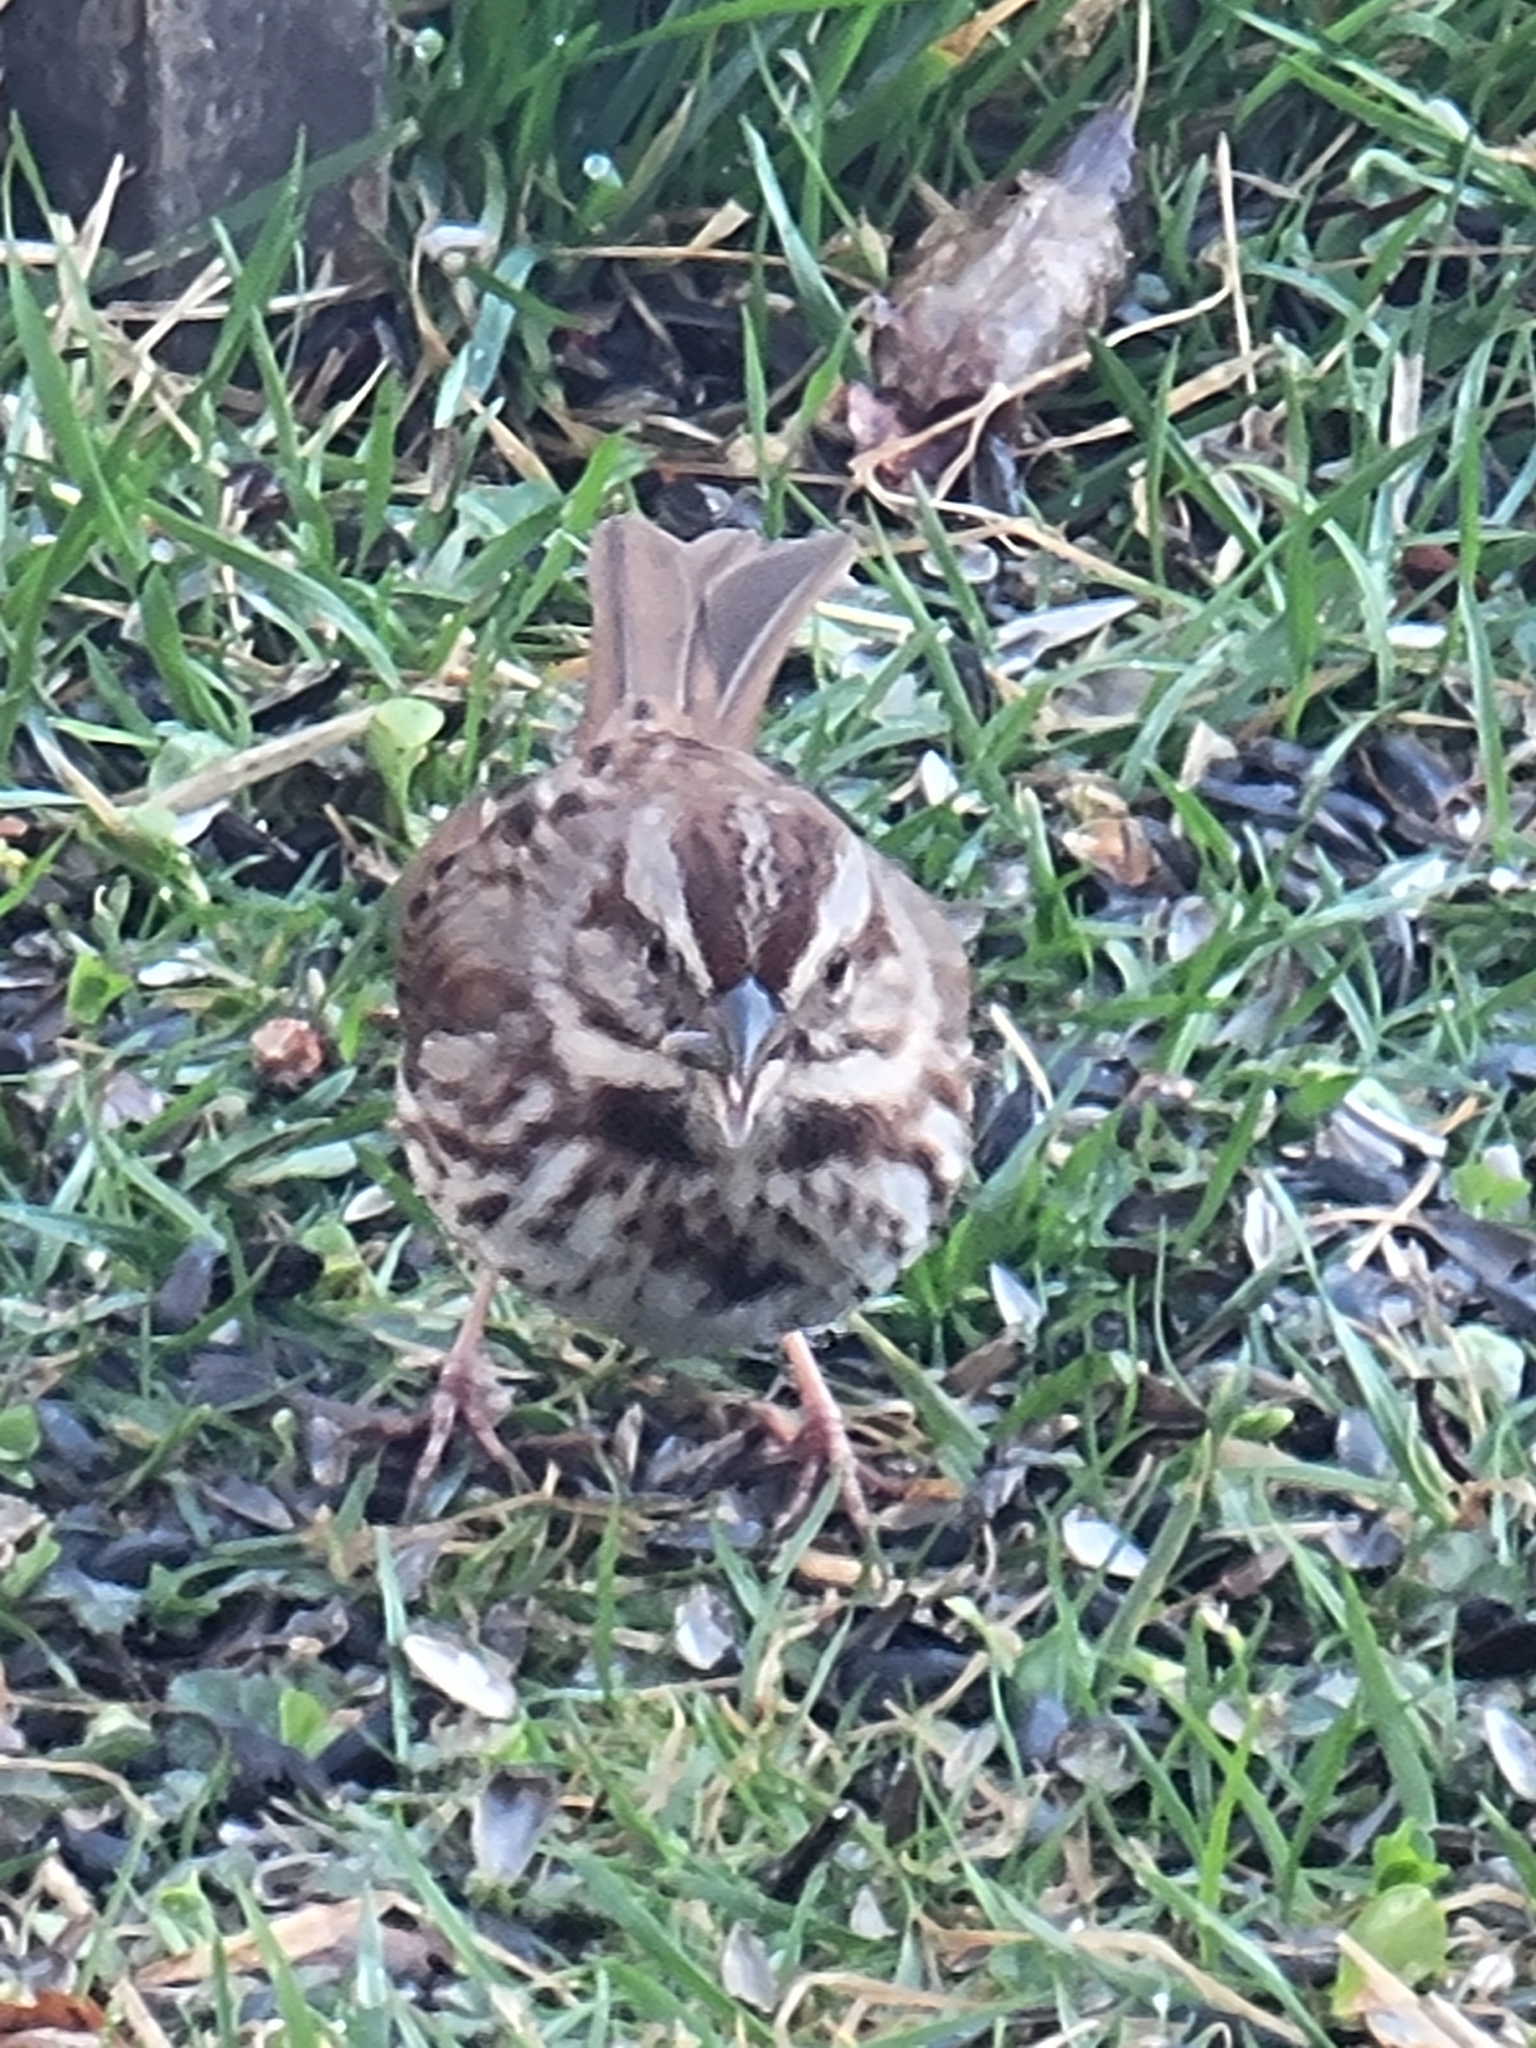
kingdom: Animalia
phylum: Chordata
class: Aves
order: Passeriformes
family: Passerellidae
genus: Melospiza
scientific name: Melospiza melodia
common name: Song sparrow
